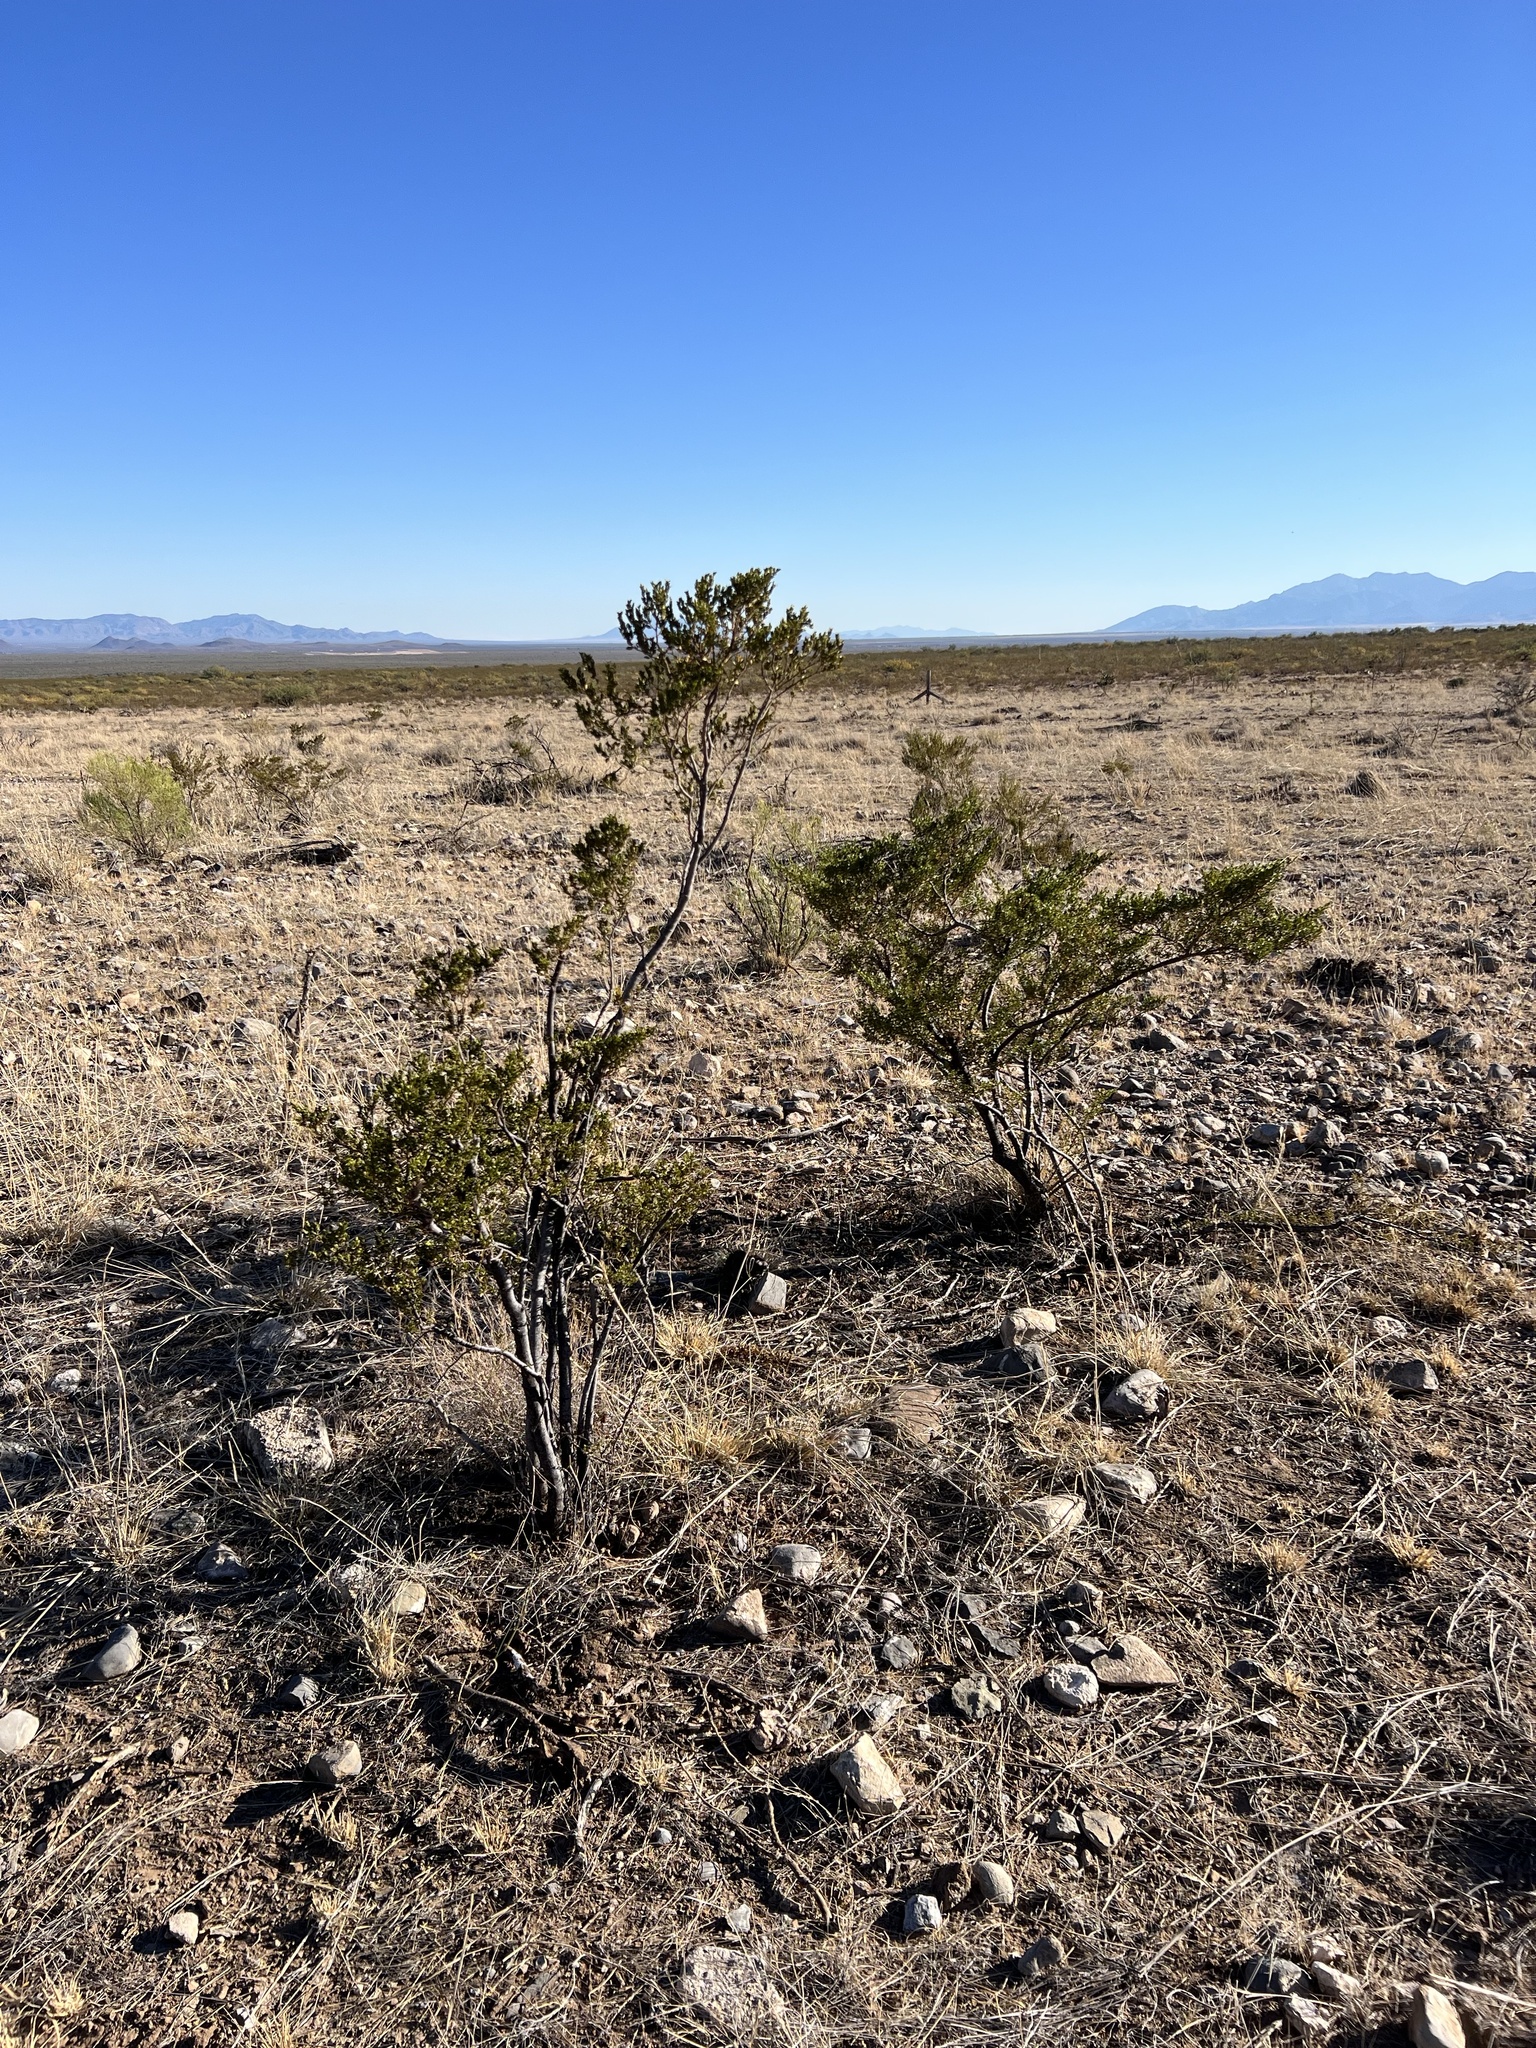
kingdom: Plantae
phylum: Tracheophyta
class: Magnoliopsida
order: Zygophyllales
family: Zygophyllaceae
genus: Larrea
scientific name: Larrea tridentata
